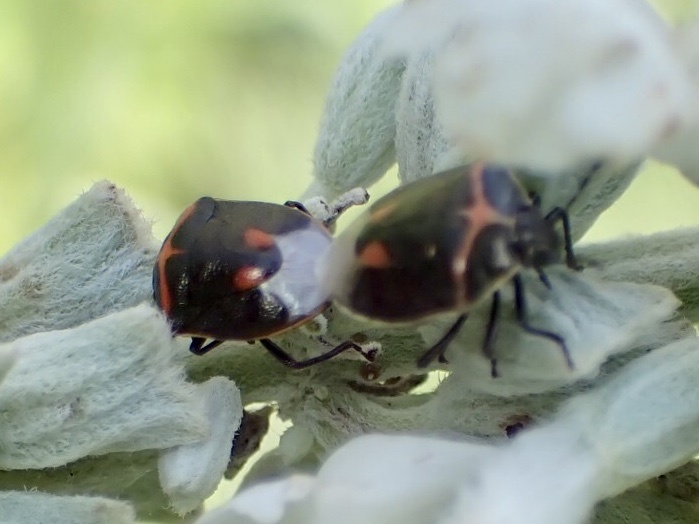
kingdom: Animalia
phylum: Arthropoda
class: Insecta
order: Hemiptera
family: Pentatomidae
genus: Cosmopepla
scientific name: Cosmopepla lintneriana
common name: Twice-stabbed stink bug
